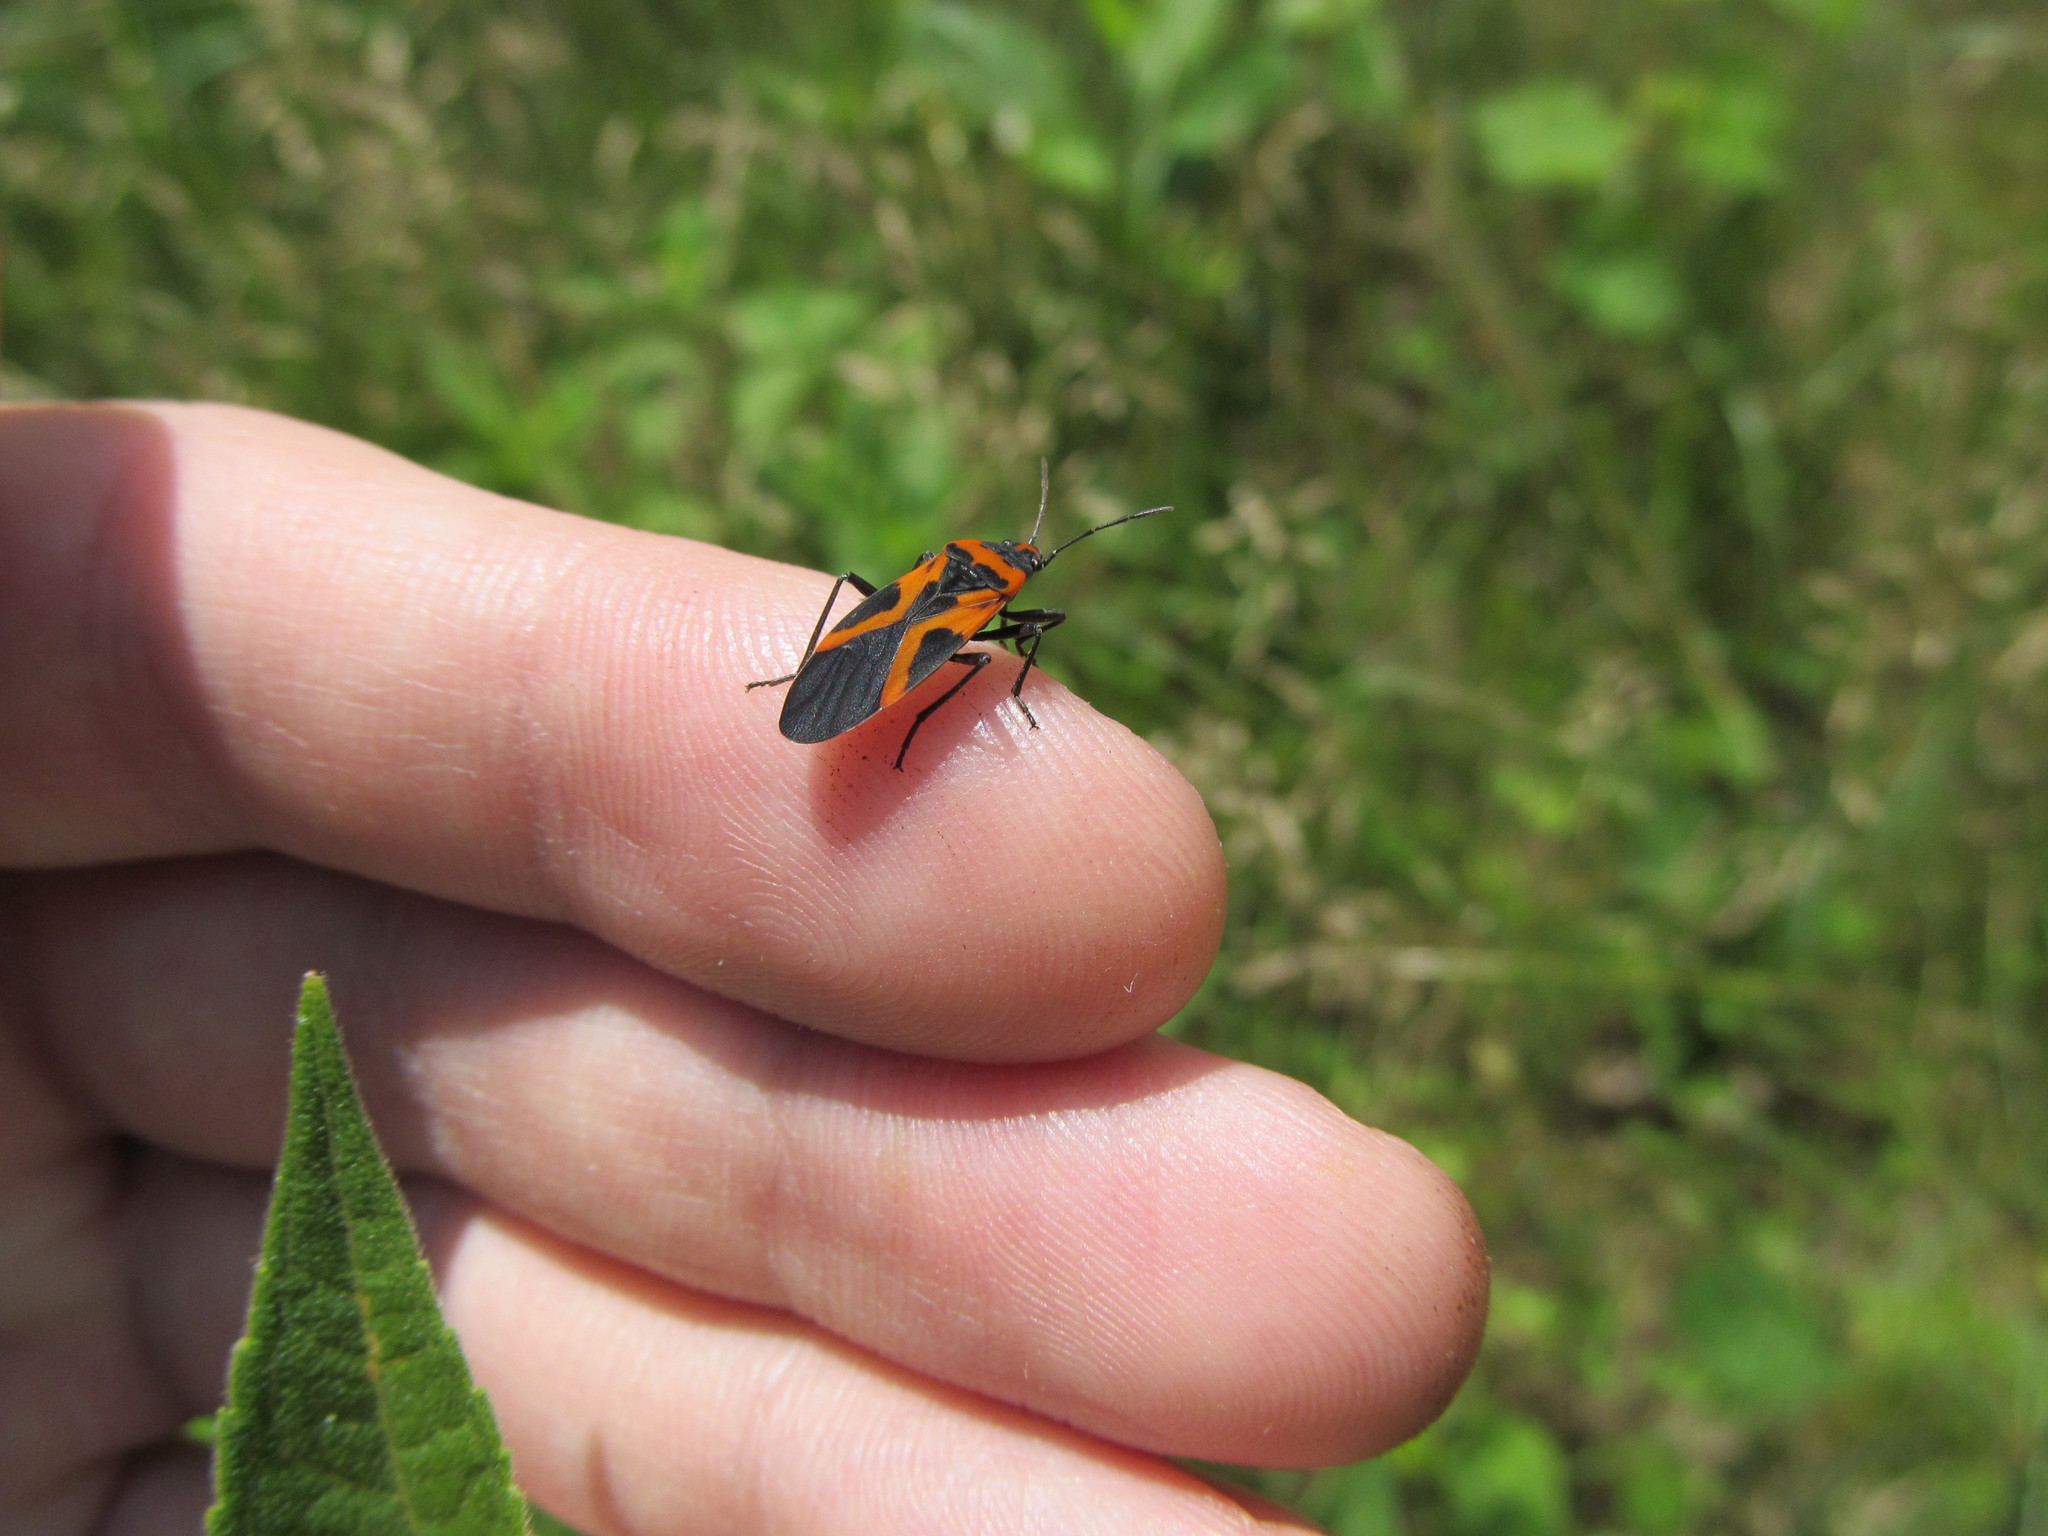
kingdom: Animalia
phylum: Arthropoda
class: Insecta
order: Hemiptera
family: Lygaeidae
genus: Lygaeus
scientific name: Lygaeus turcicus
